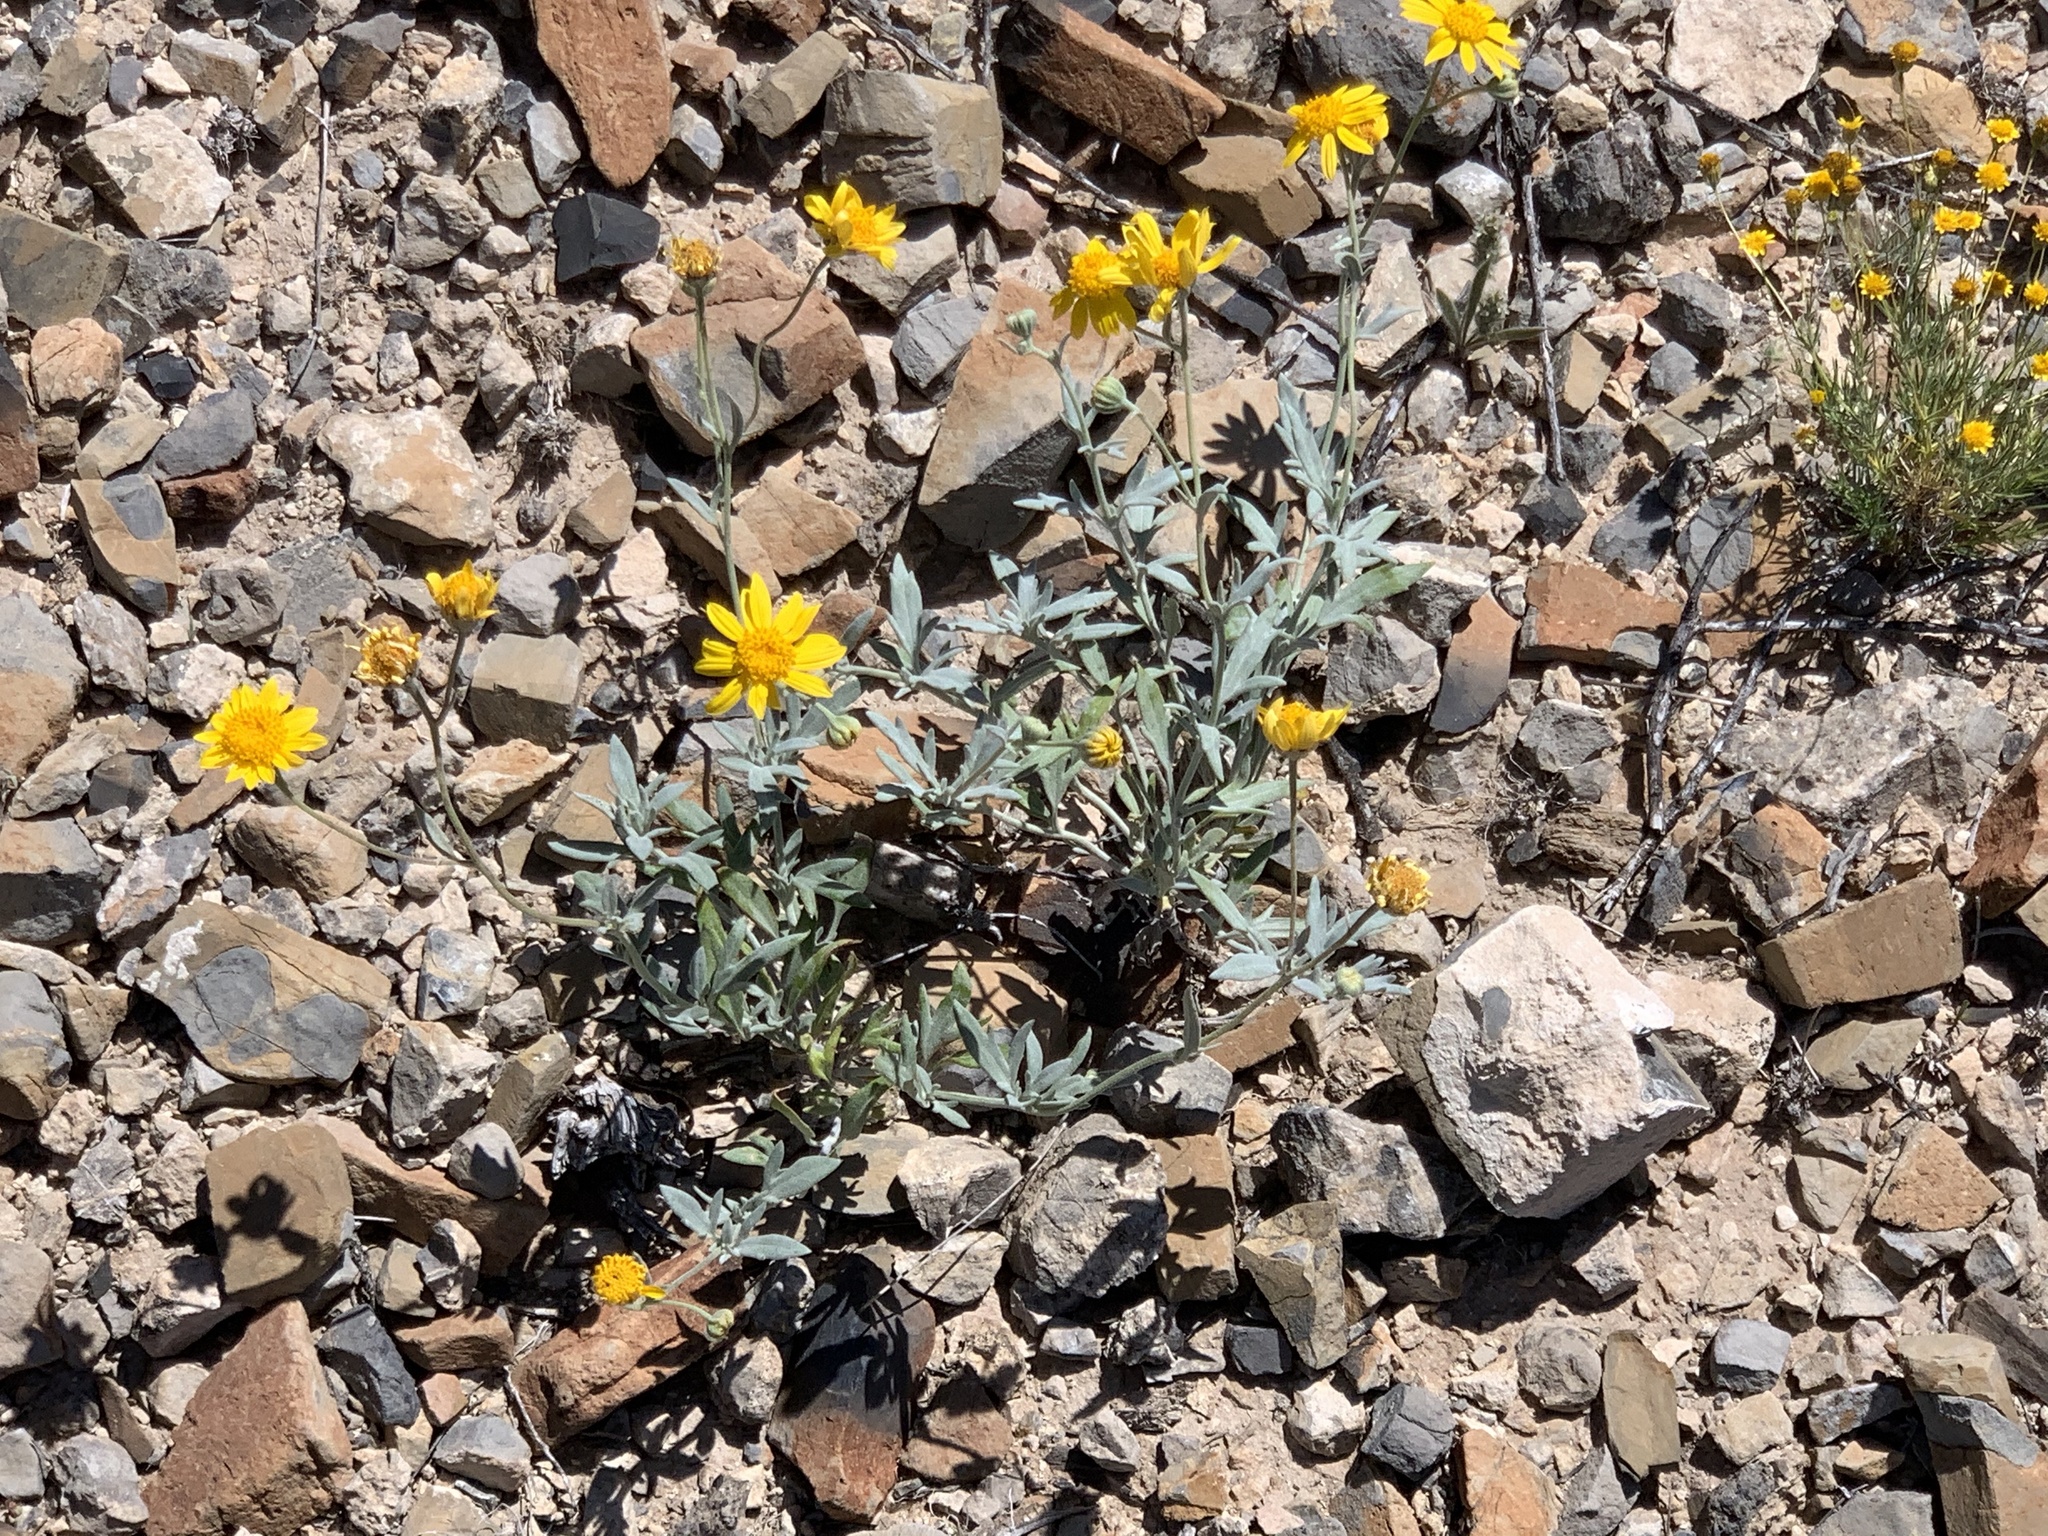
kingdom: Plantae
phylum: Tracheophyta
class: Magnoliopsida
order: Asterales
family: Asteraceae
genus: Picradeniopsis
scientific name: Picradeniopsis absinthifolia
